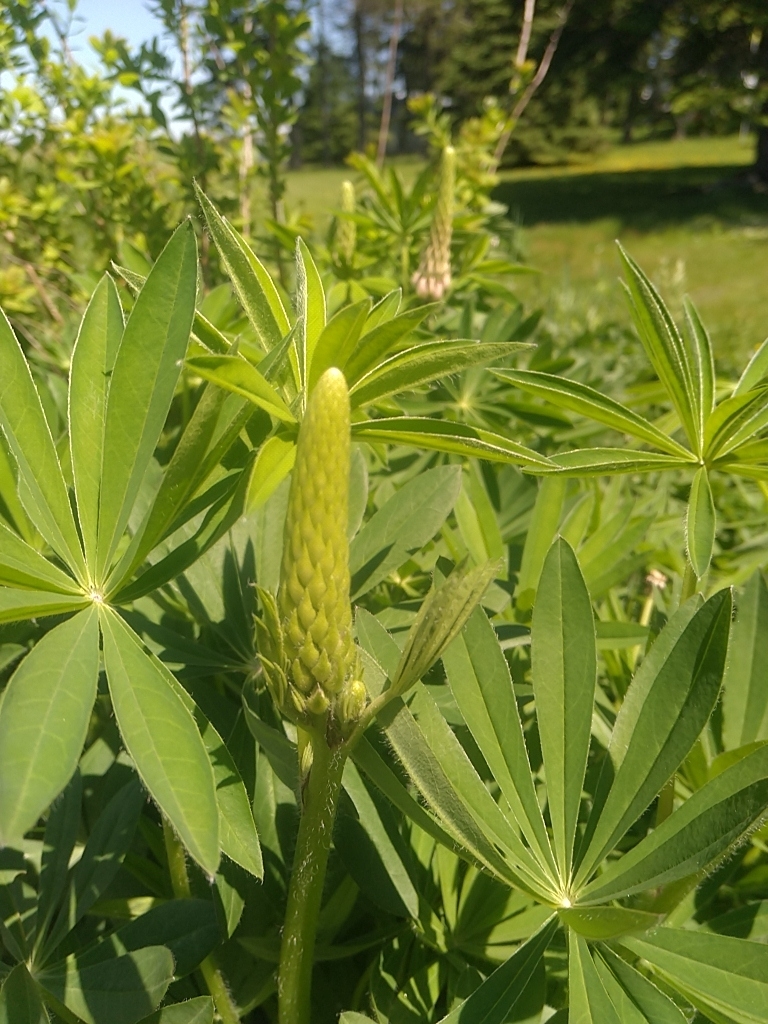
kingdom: Plantae
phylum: Tracheophyta
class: Magnoliopsida
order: Fabales
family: Fabaceae
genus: Lupinus
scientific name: Lupinus polyphyllus
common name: Garden lupin
